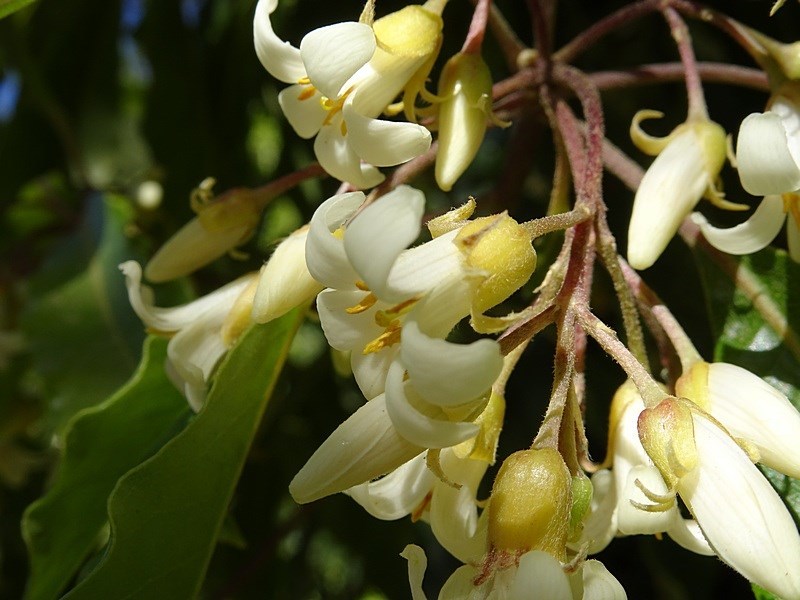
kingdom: Plantae
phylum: Tracheophyta
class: Magnoliopsida
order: Apiales
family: Pittosporaceae
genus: Pittosporum
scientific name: Pittosporum undulatum
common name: Australian cheesewood
